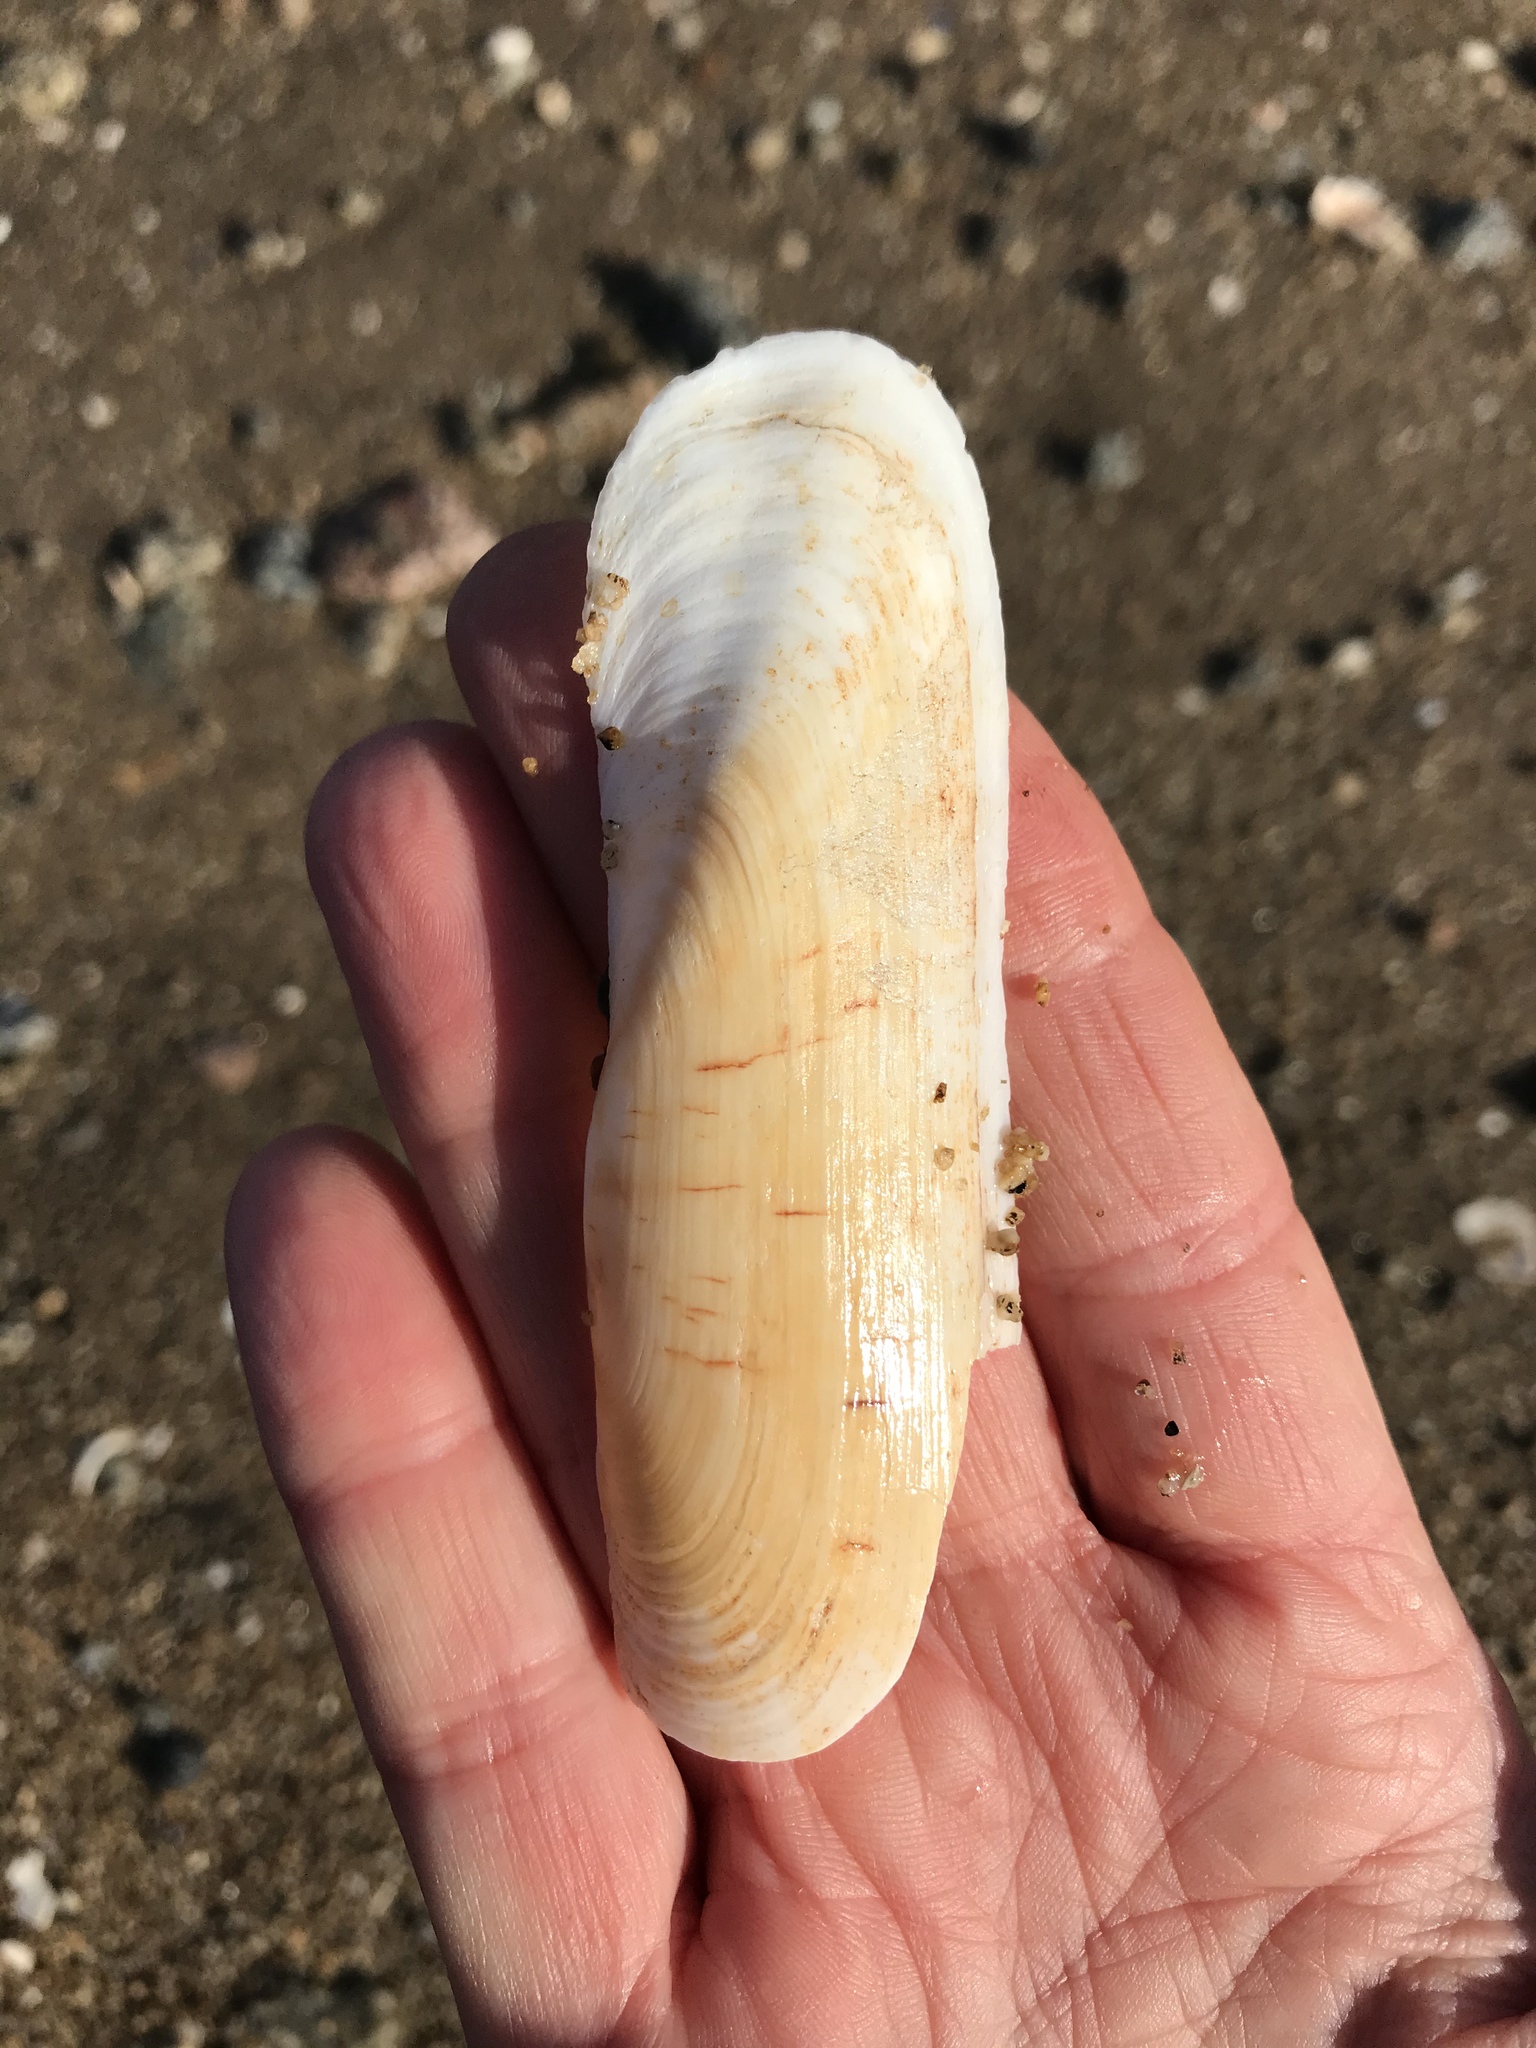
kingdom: Animalia
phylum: Mollusca
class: Bivalvia
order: Cardiida
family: Solecurtidae
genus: Tagelus
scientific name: Tagelus californianus
